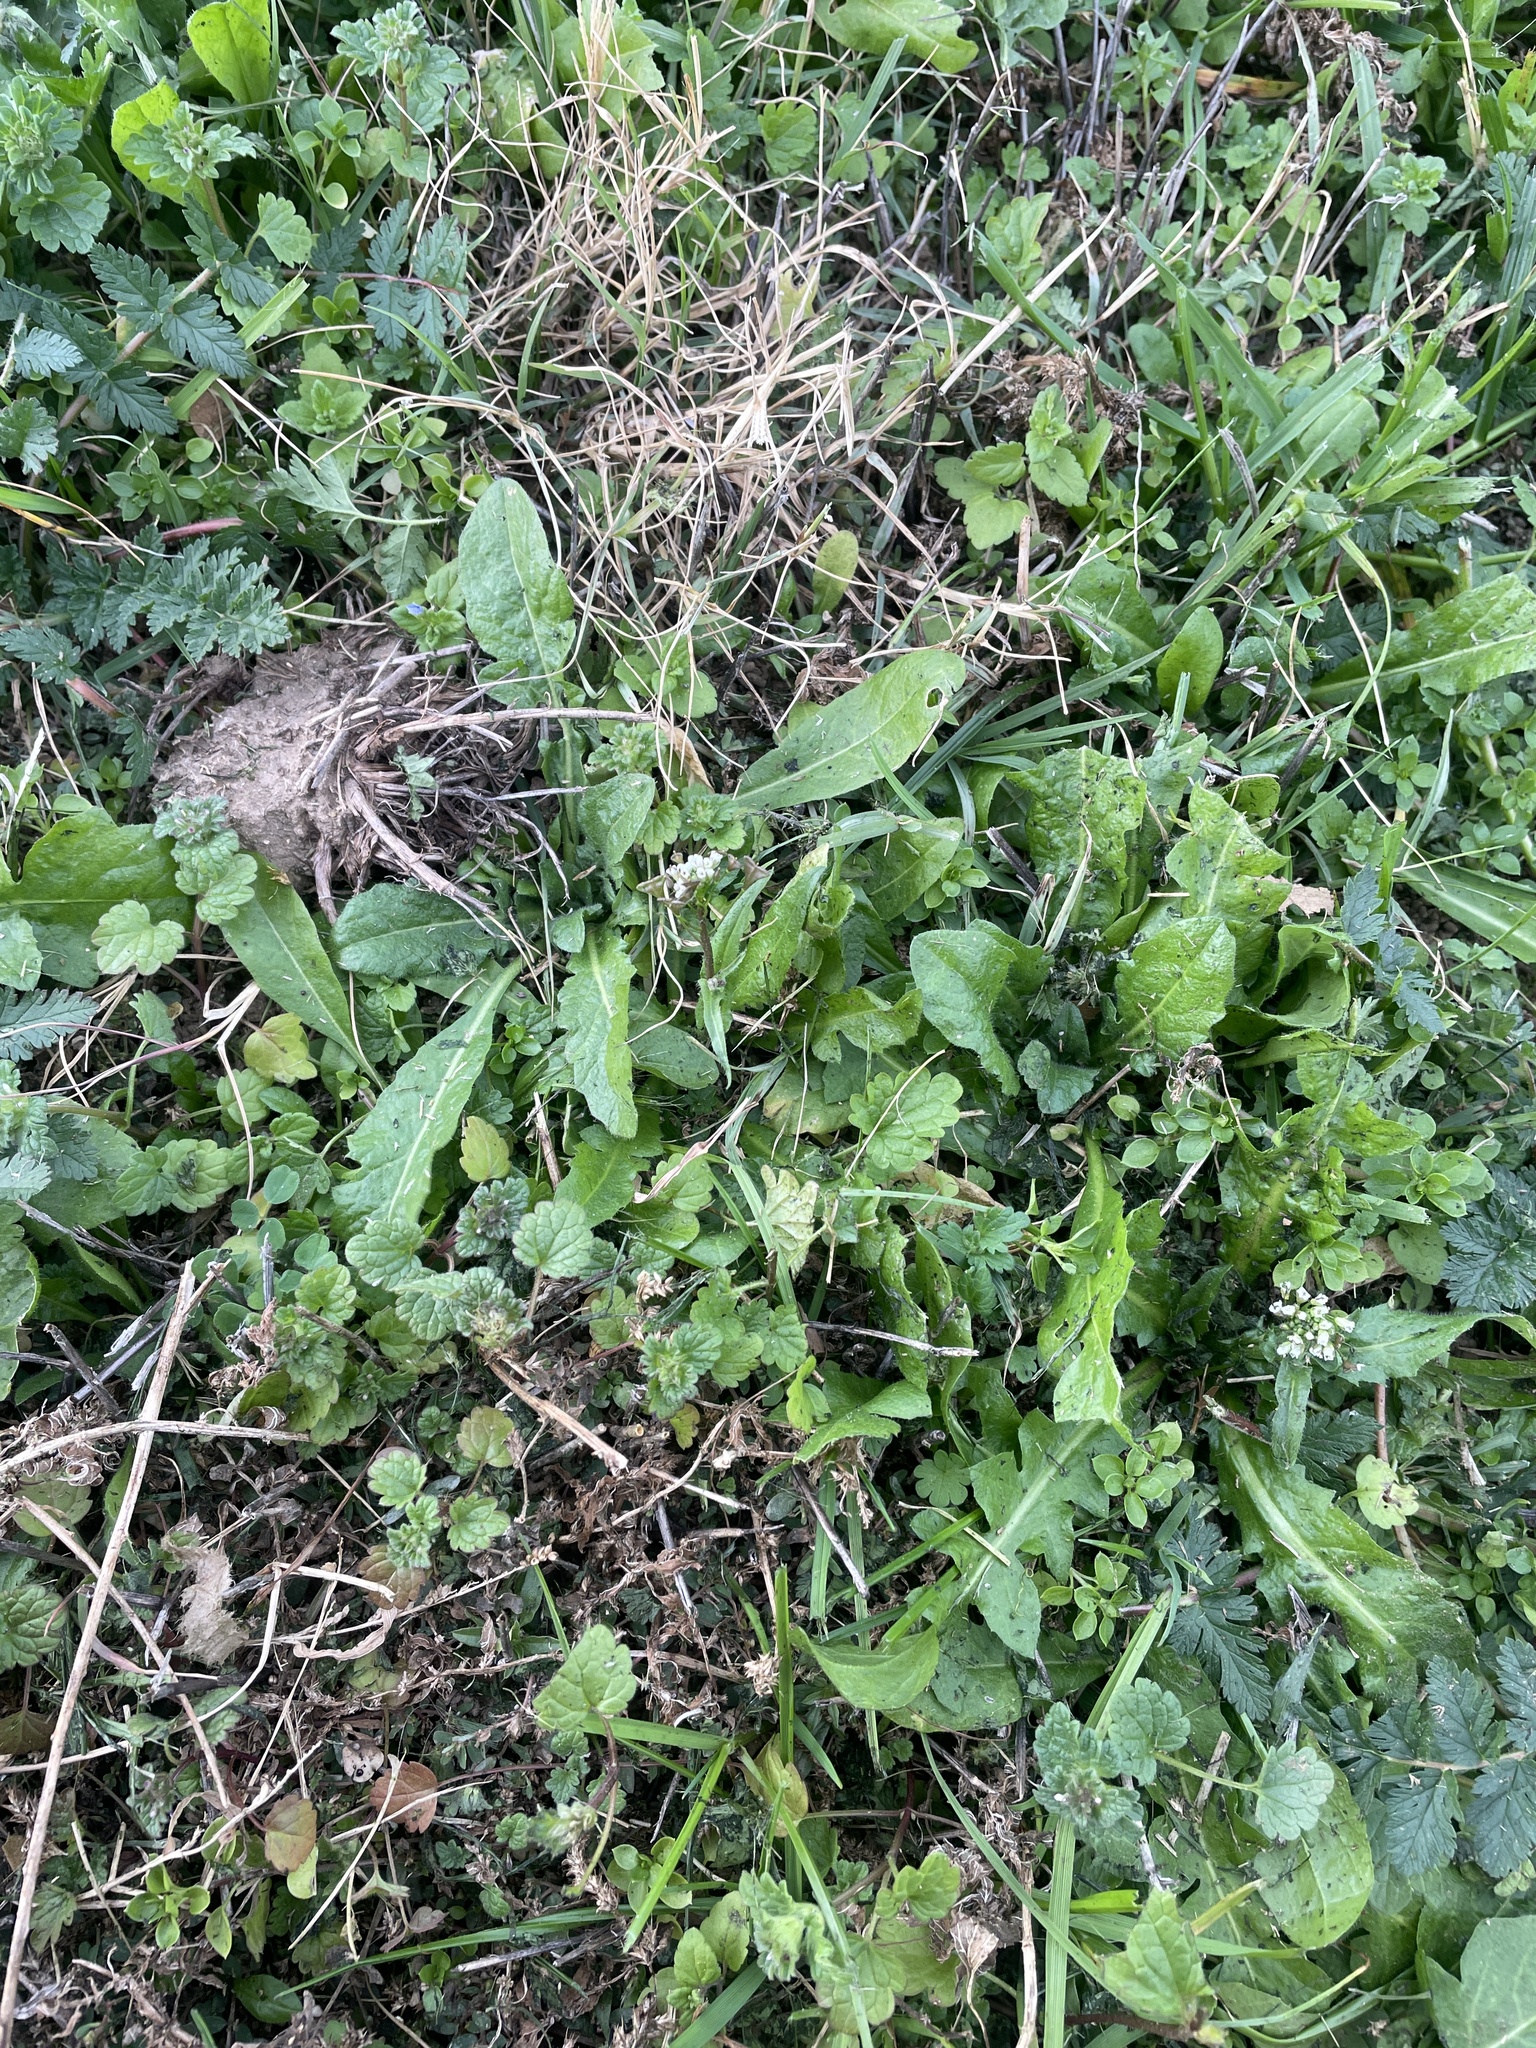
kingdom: Plantae
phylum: Tracheophyta
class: Magnoliopsida
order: Brassicales
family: Brassicaceae
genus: Capsella
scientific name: Capsella bursa-pastoris
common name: Shepherd's purse
